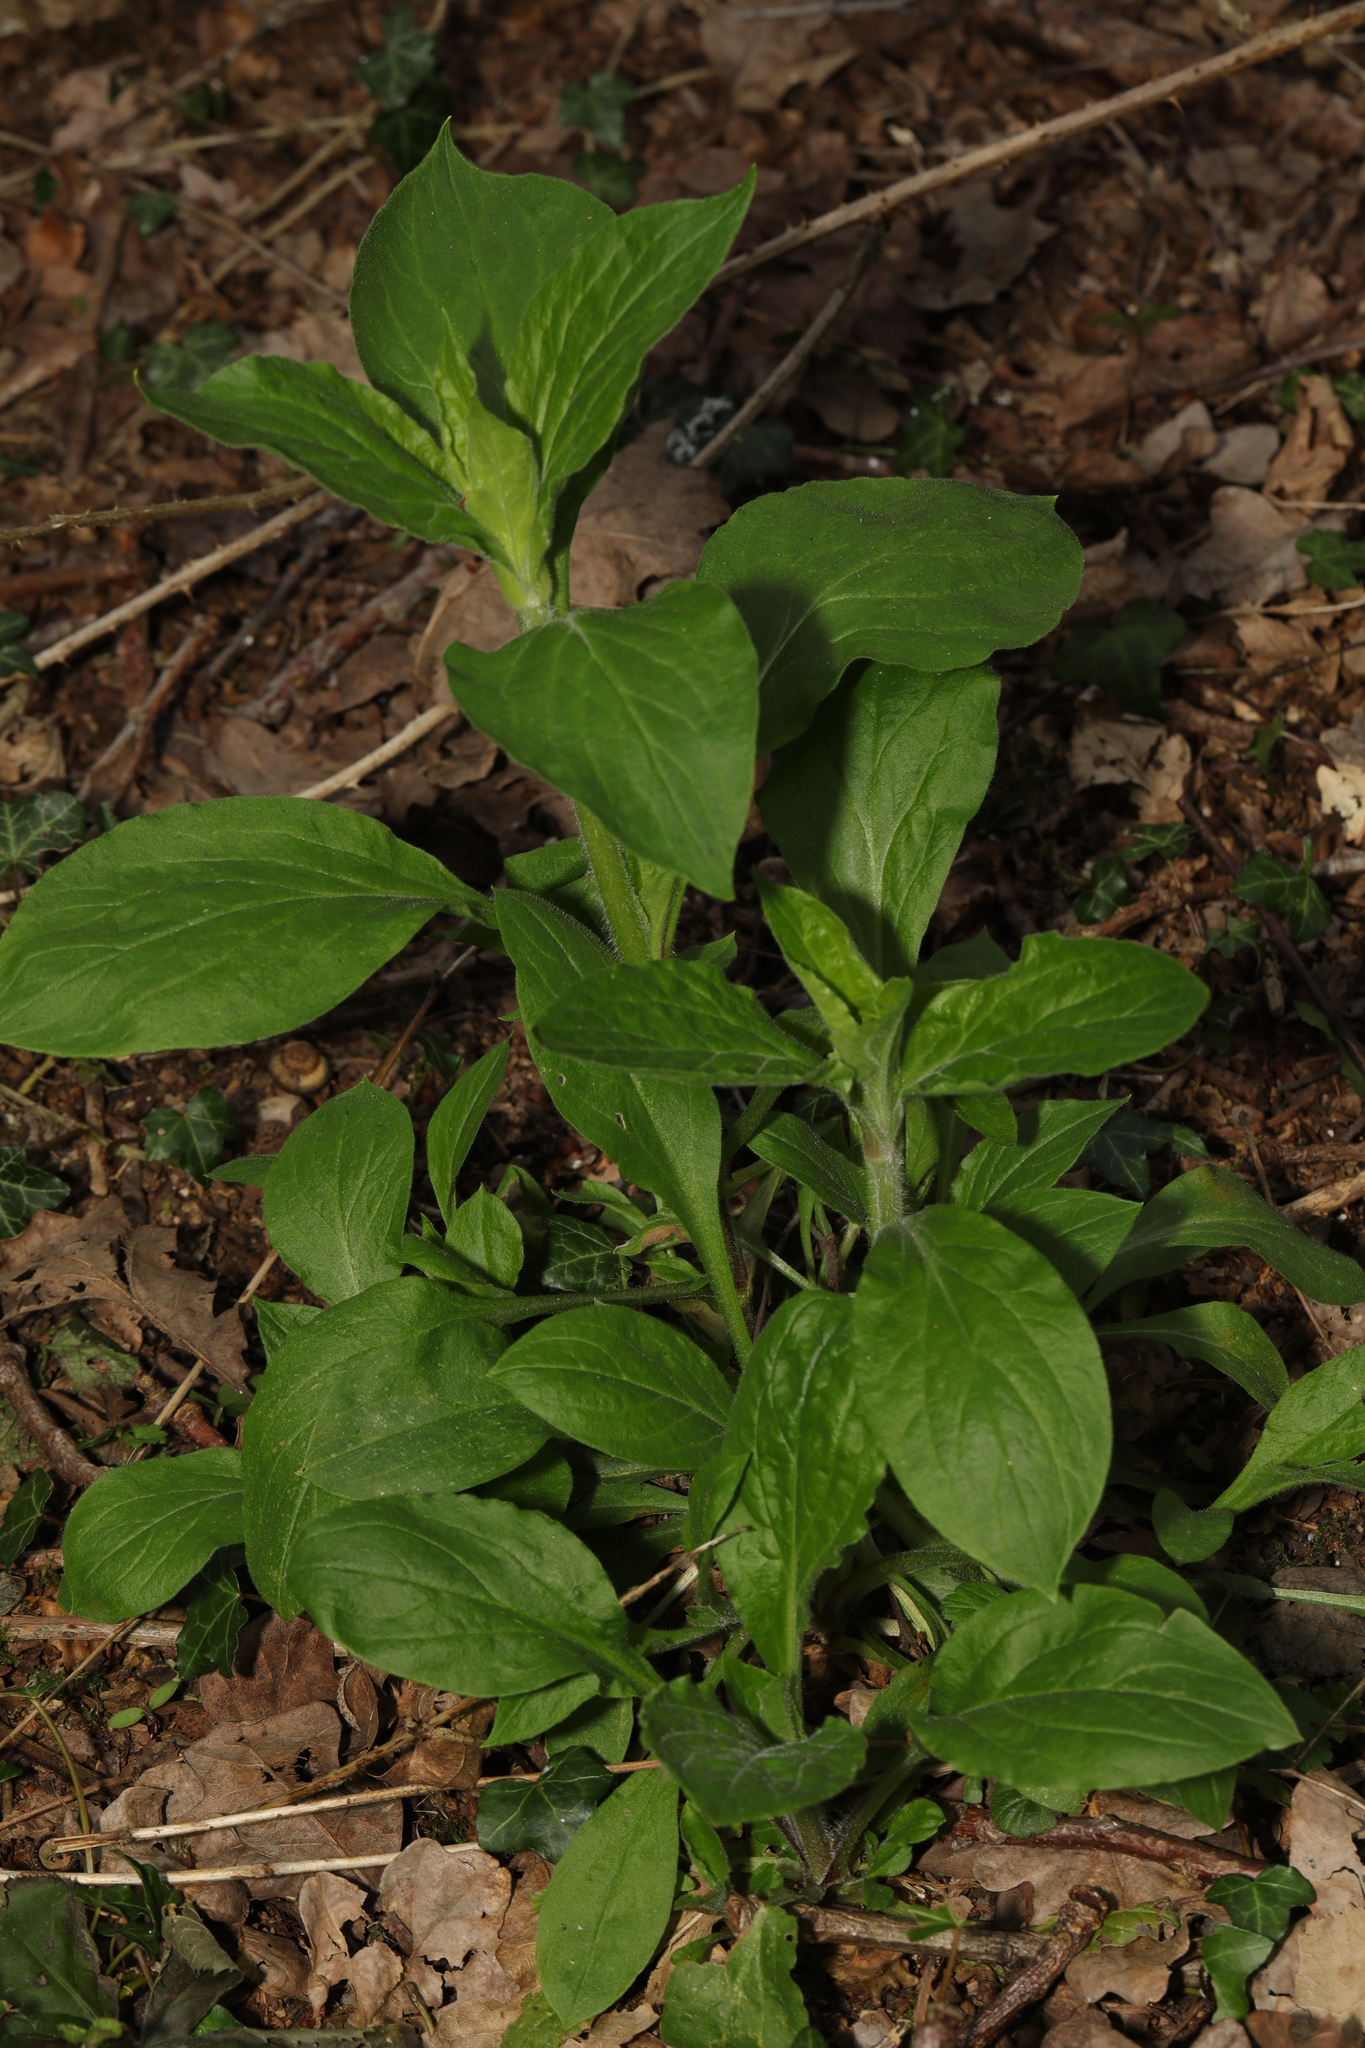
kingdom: Plantae
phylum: Tracheophyta
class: Magnoliopsida
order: Caryophyllales
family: Caryophyllaceae
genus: Silene
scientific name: Silene dioica
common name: Red campion
